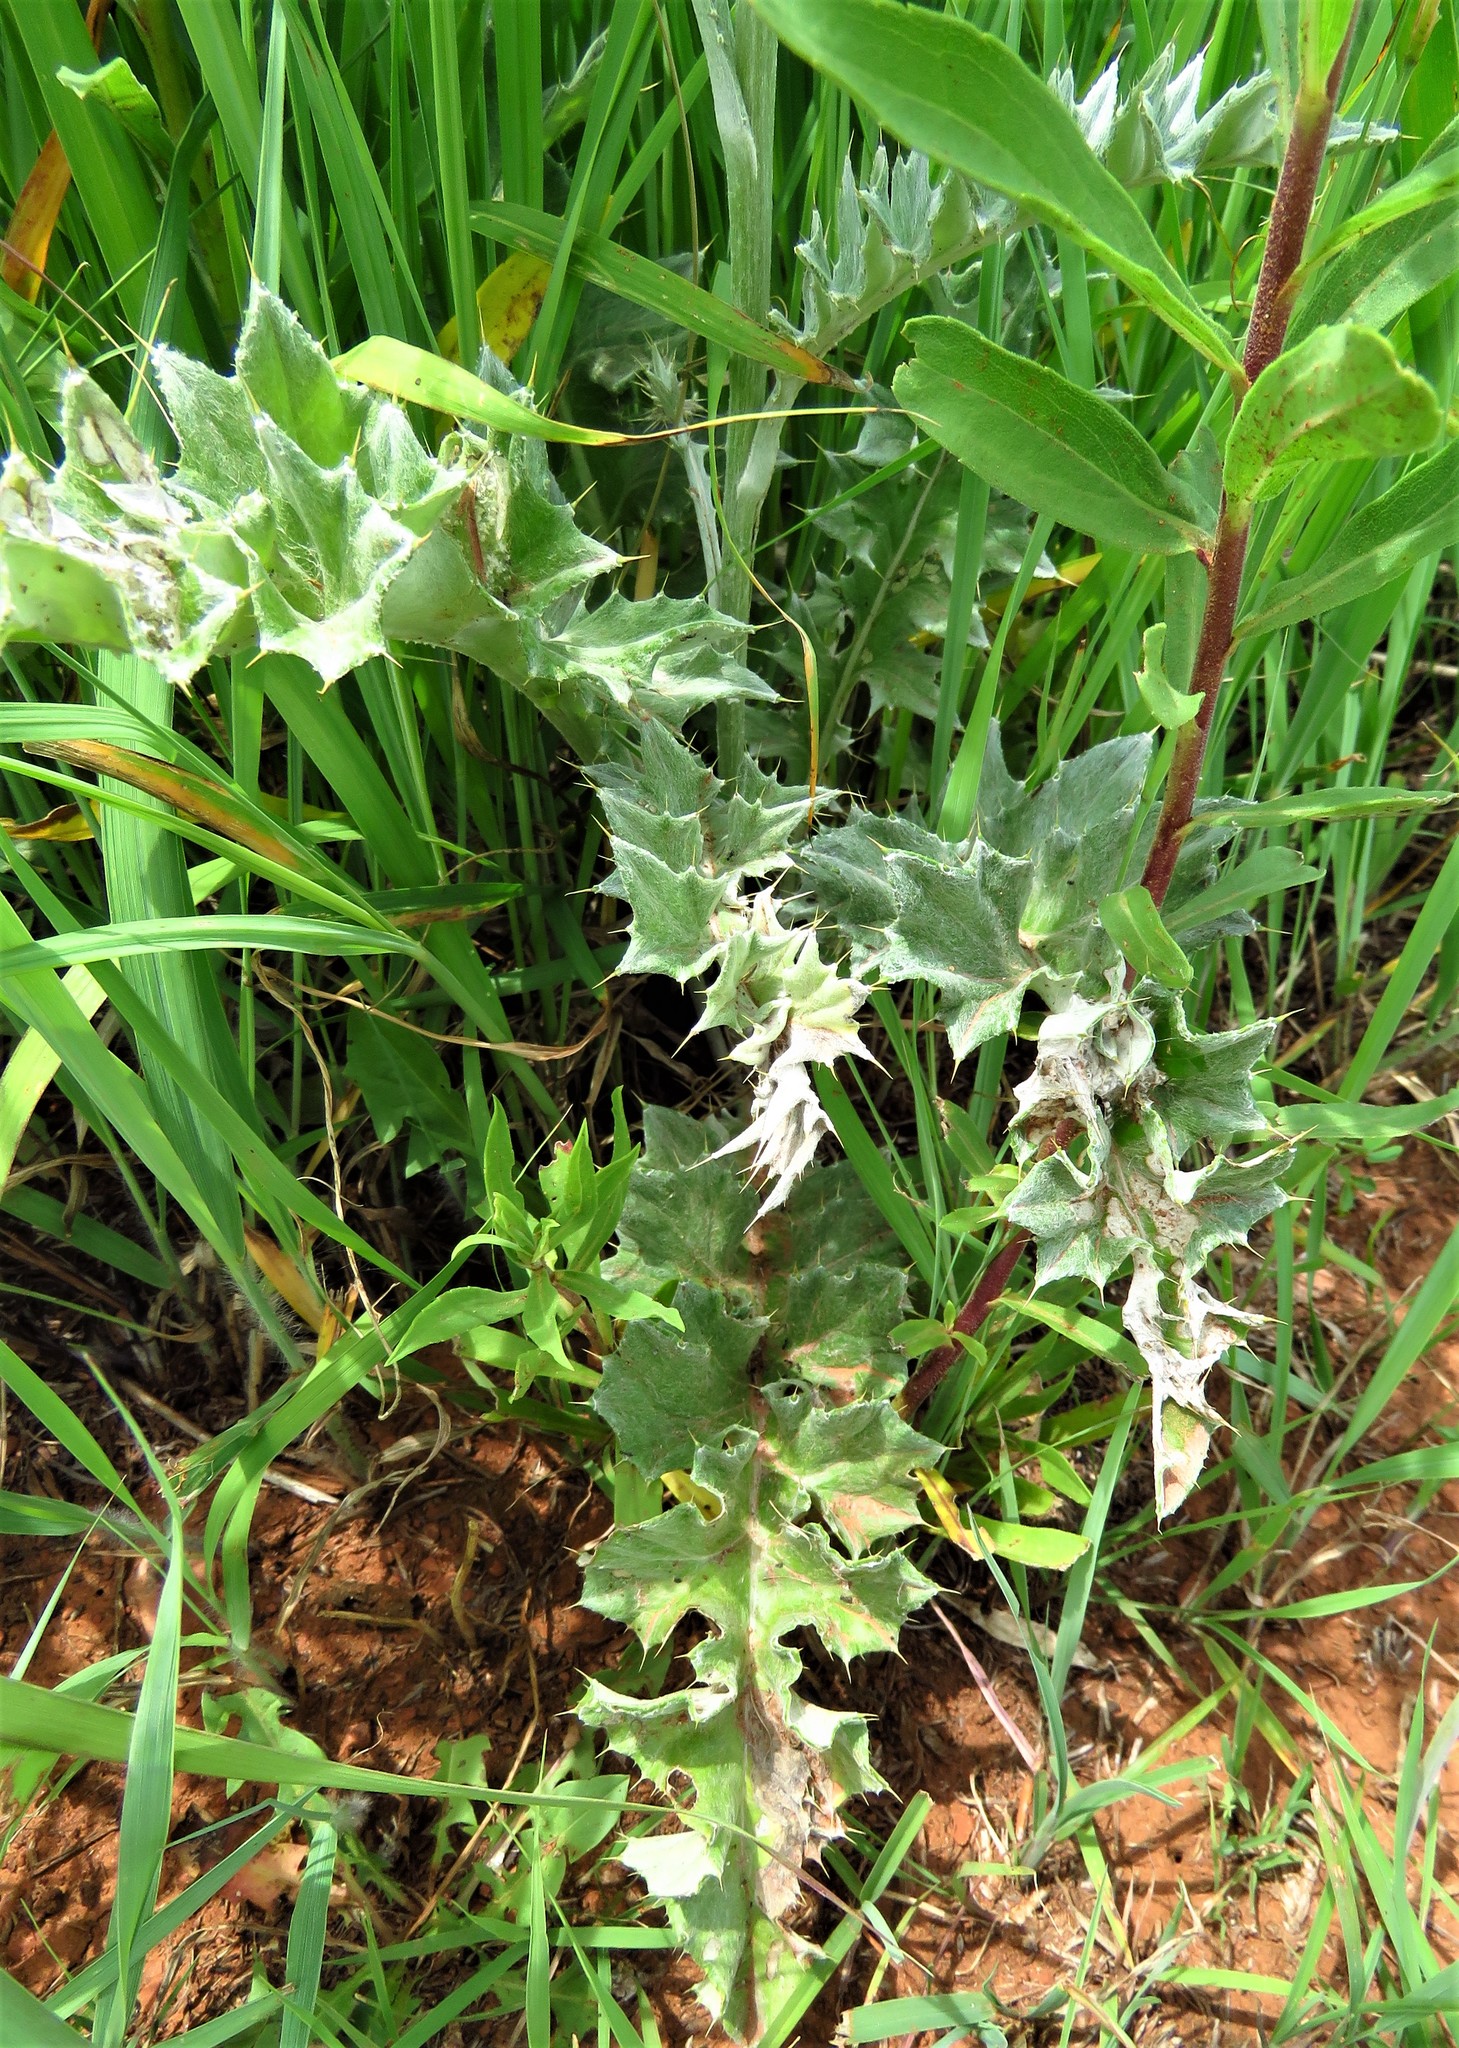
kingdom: Plantae
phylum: Tracheophyta
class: Magnoliopsida
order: Asterales
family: Asteraceae
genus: Cirsium
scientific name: Cirsium undulatum
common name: Pasture thistle
